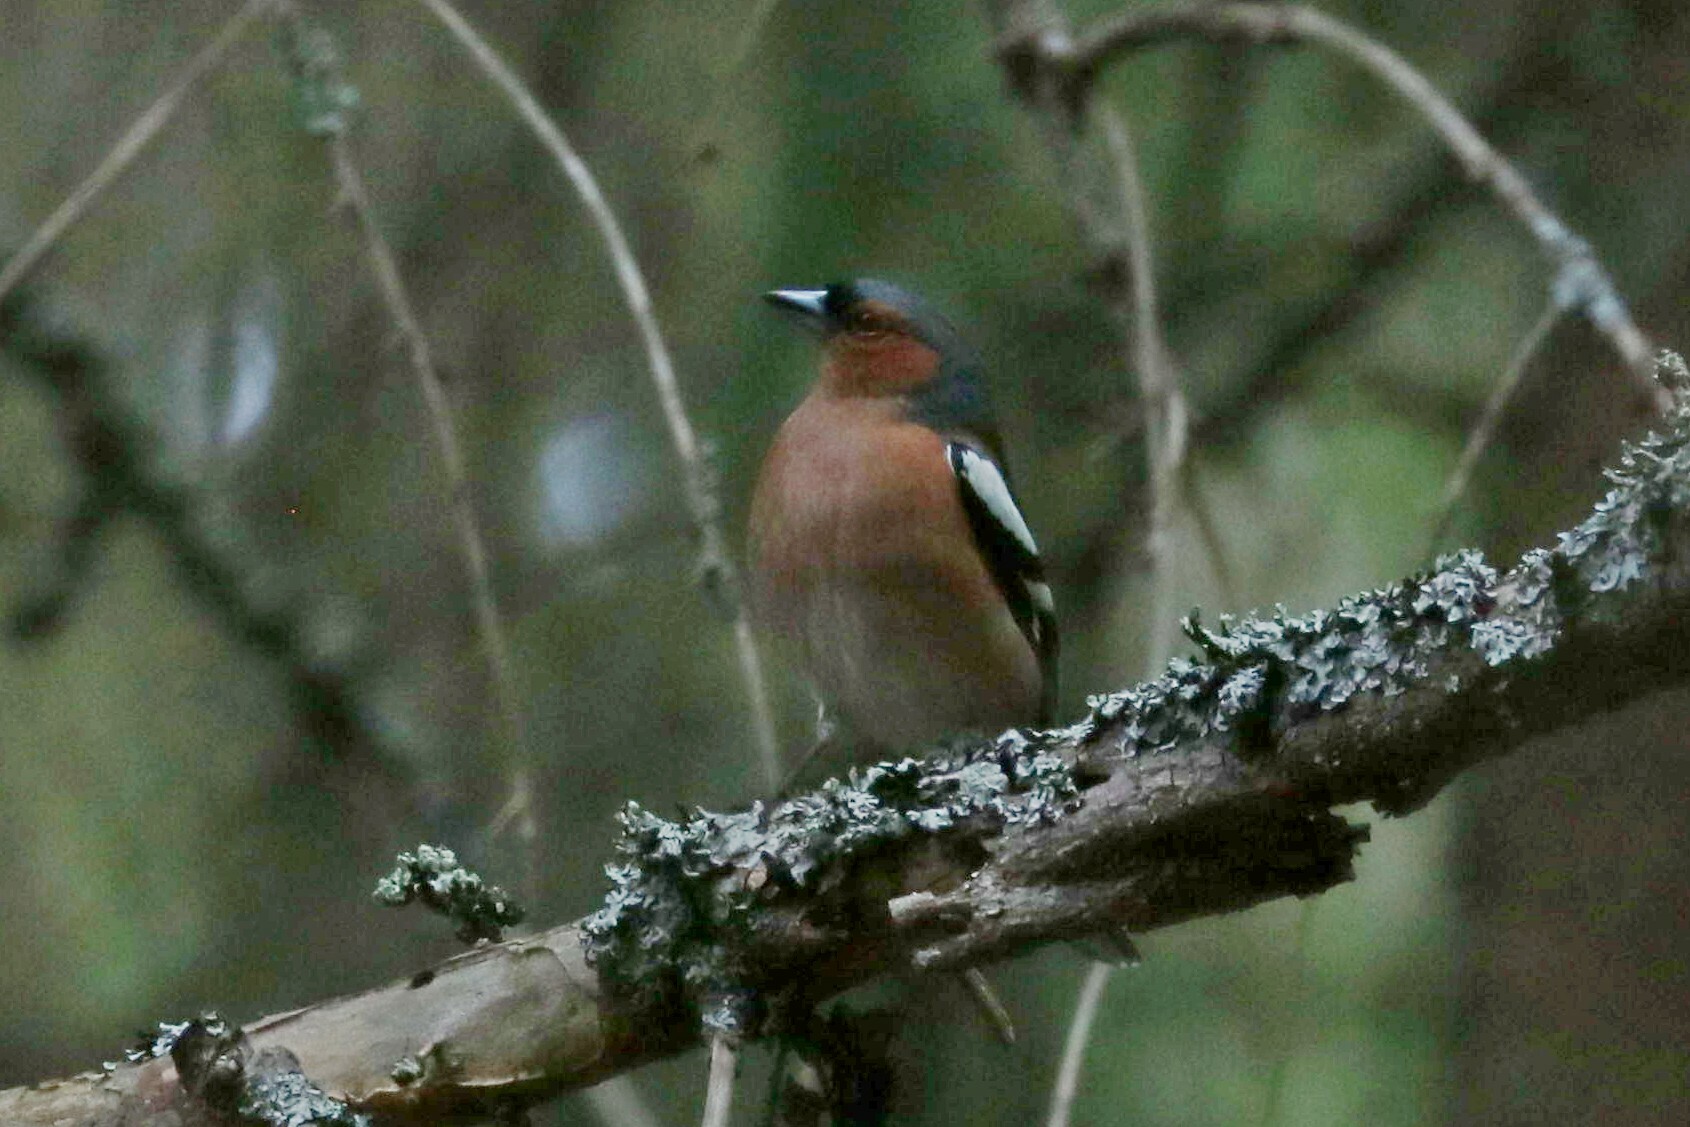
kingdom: Animalia
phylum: Chordata
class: Aves
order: Passeriformes
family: Fringillidae
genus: Fringilla
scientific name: Fringilla coelebs
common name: Common chaffinch
